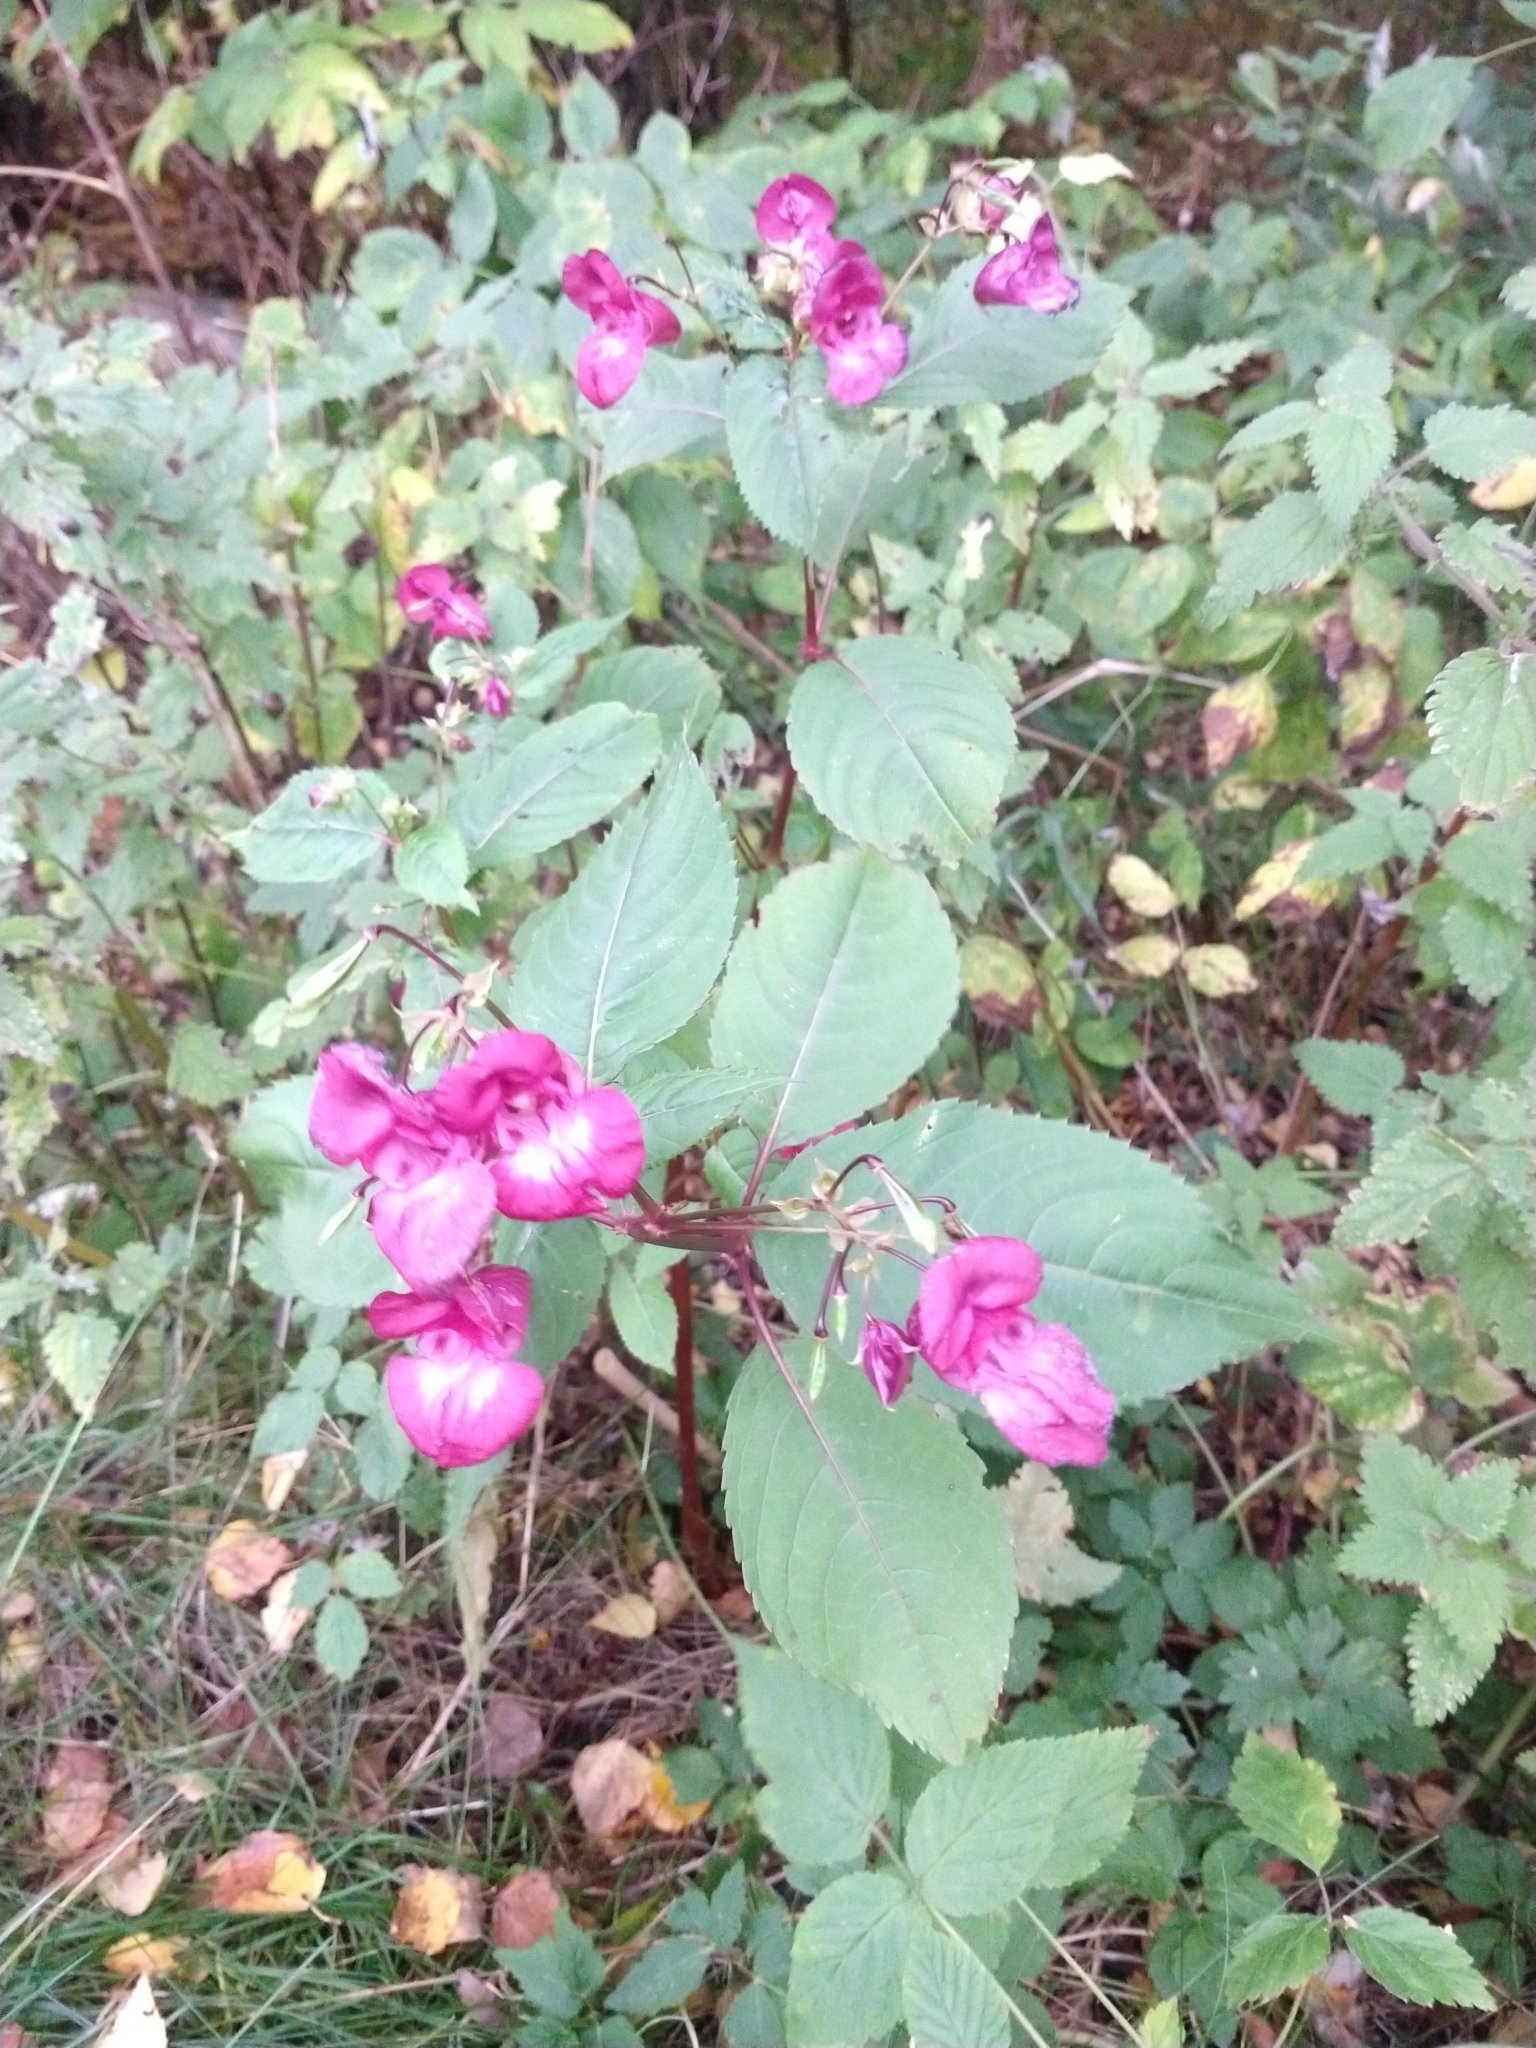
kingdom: Plantae
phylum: Tracheophyta
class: Magnoliopsida
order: Ericales
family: Balsaminaceae
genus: Impatiens
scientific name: Impatiens glandulifera
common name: Himalayan balsam
